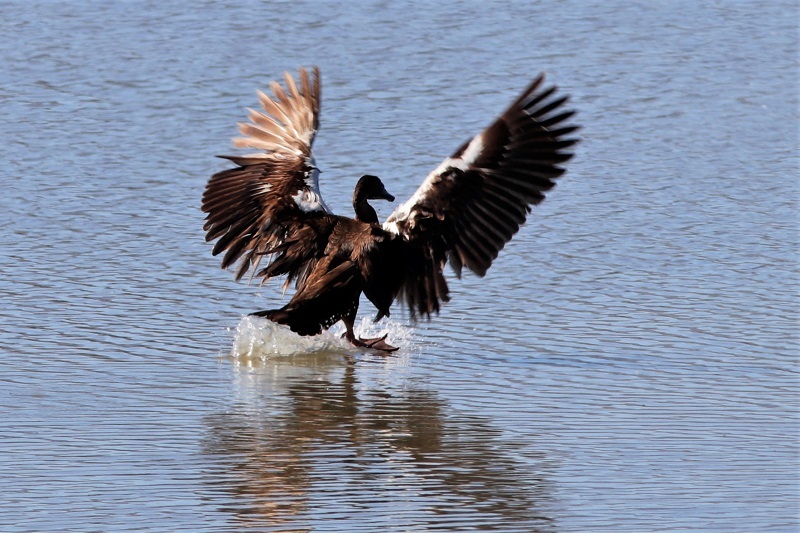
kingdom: Animalia
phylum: Chordata
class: Aves
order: Anseriformes
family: Anatidae
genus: Spatula
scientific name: Spatula smithii
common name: Cape shoveler
